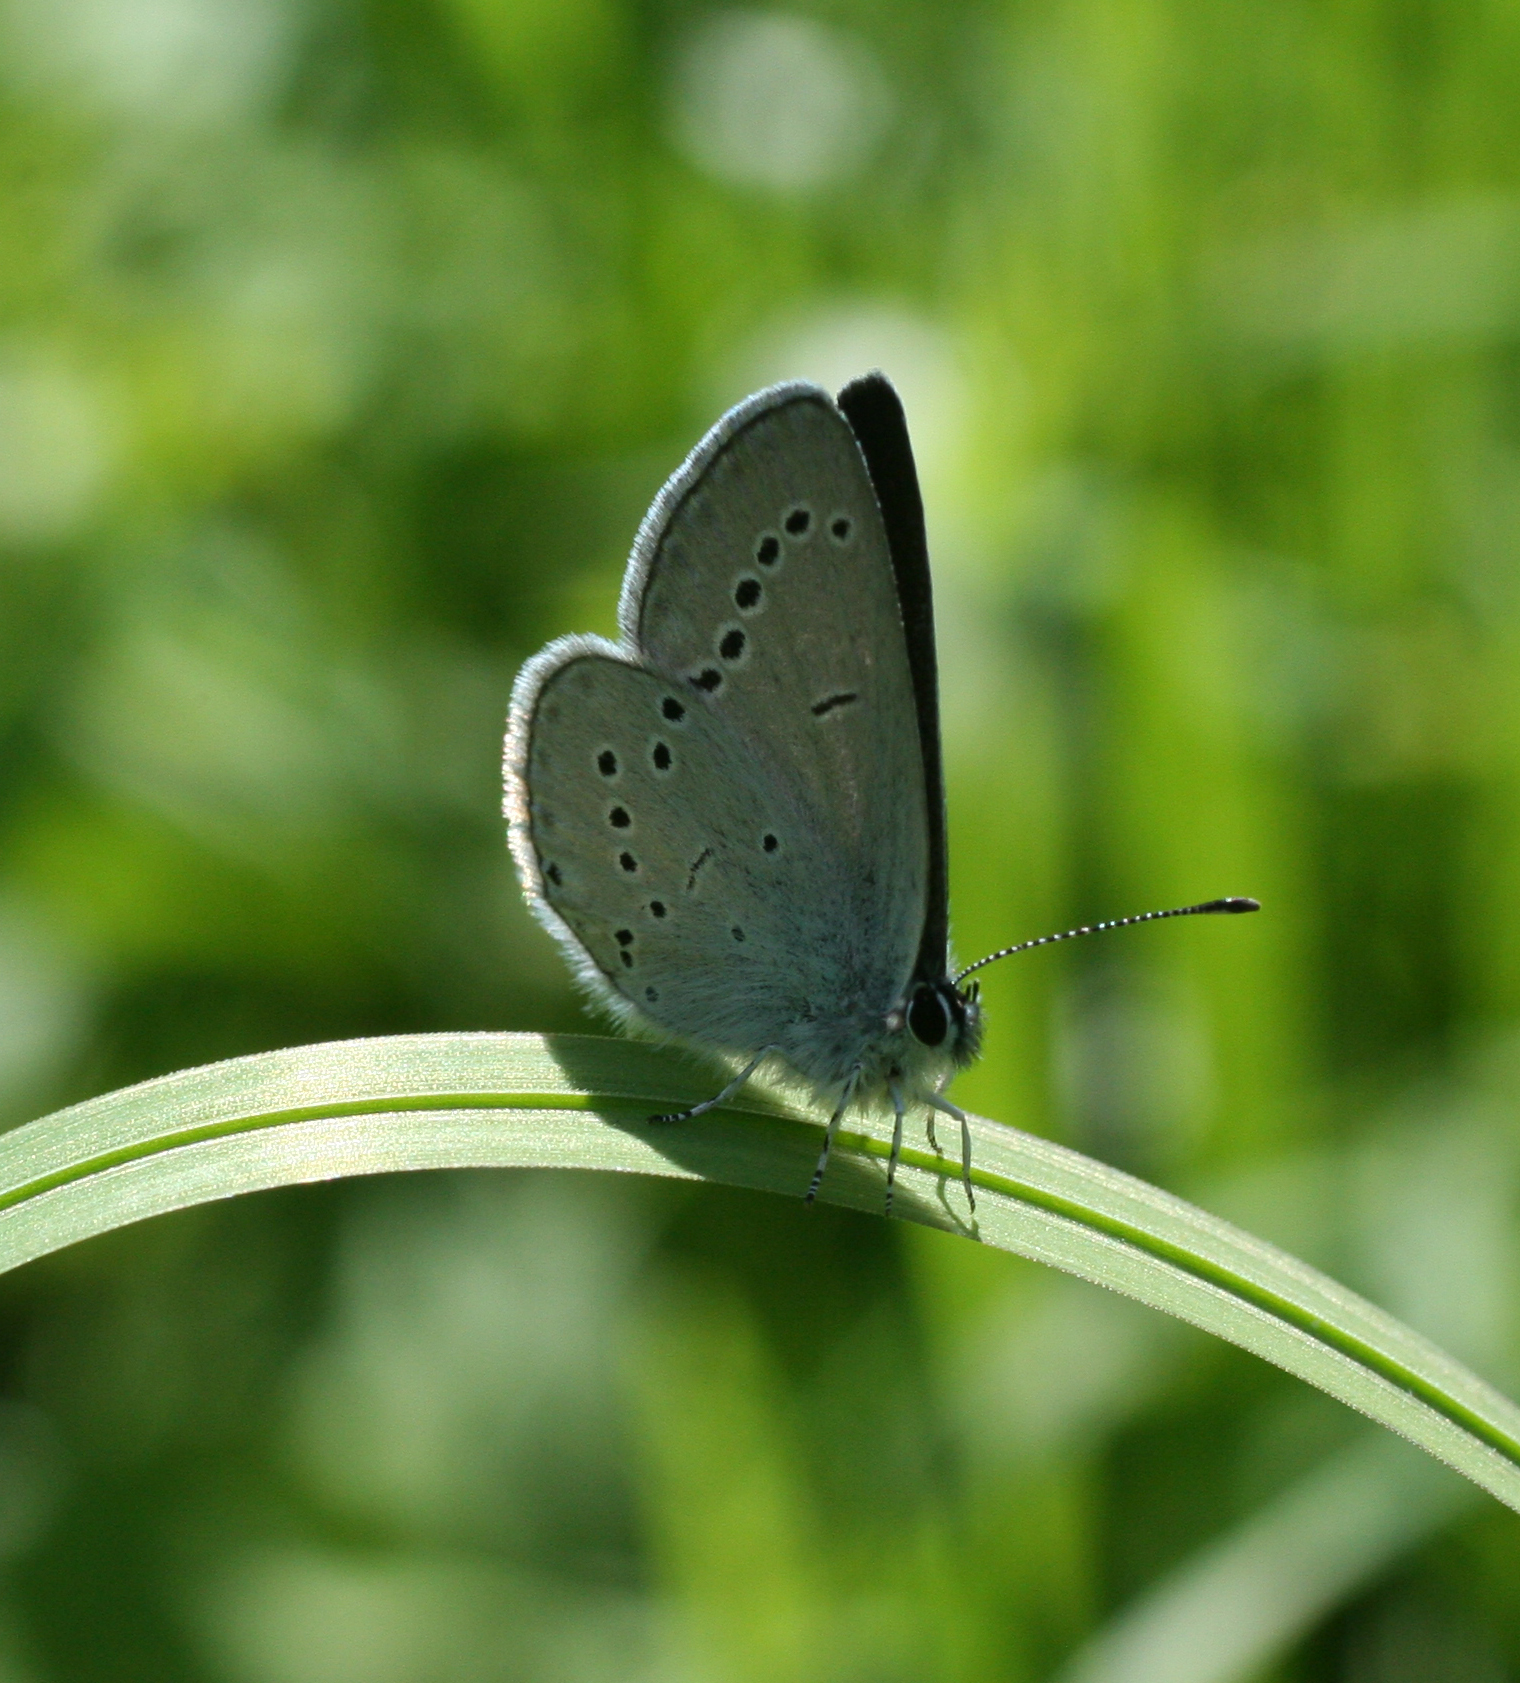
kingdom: Animalia
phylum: Arthropoda
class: Insecta
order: Lepidoptera
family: Lycaenidae
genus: Elkalyce
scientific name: Elkalyce alcetas
